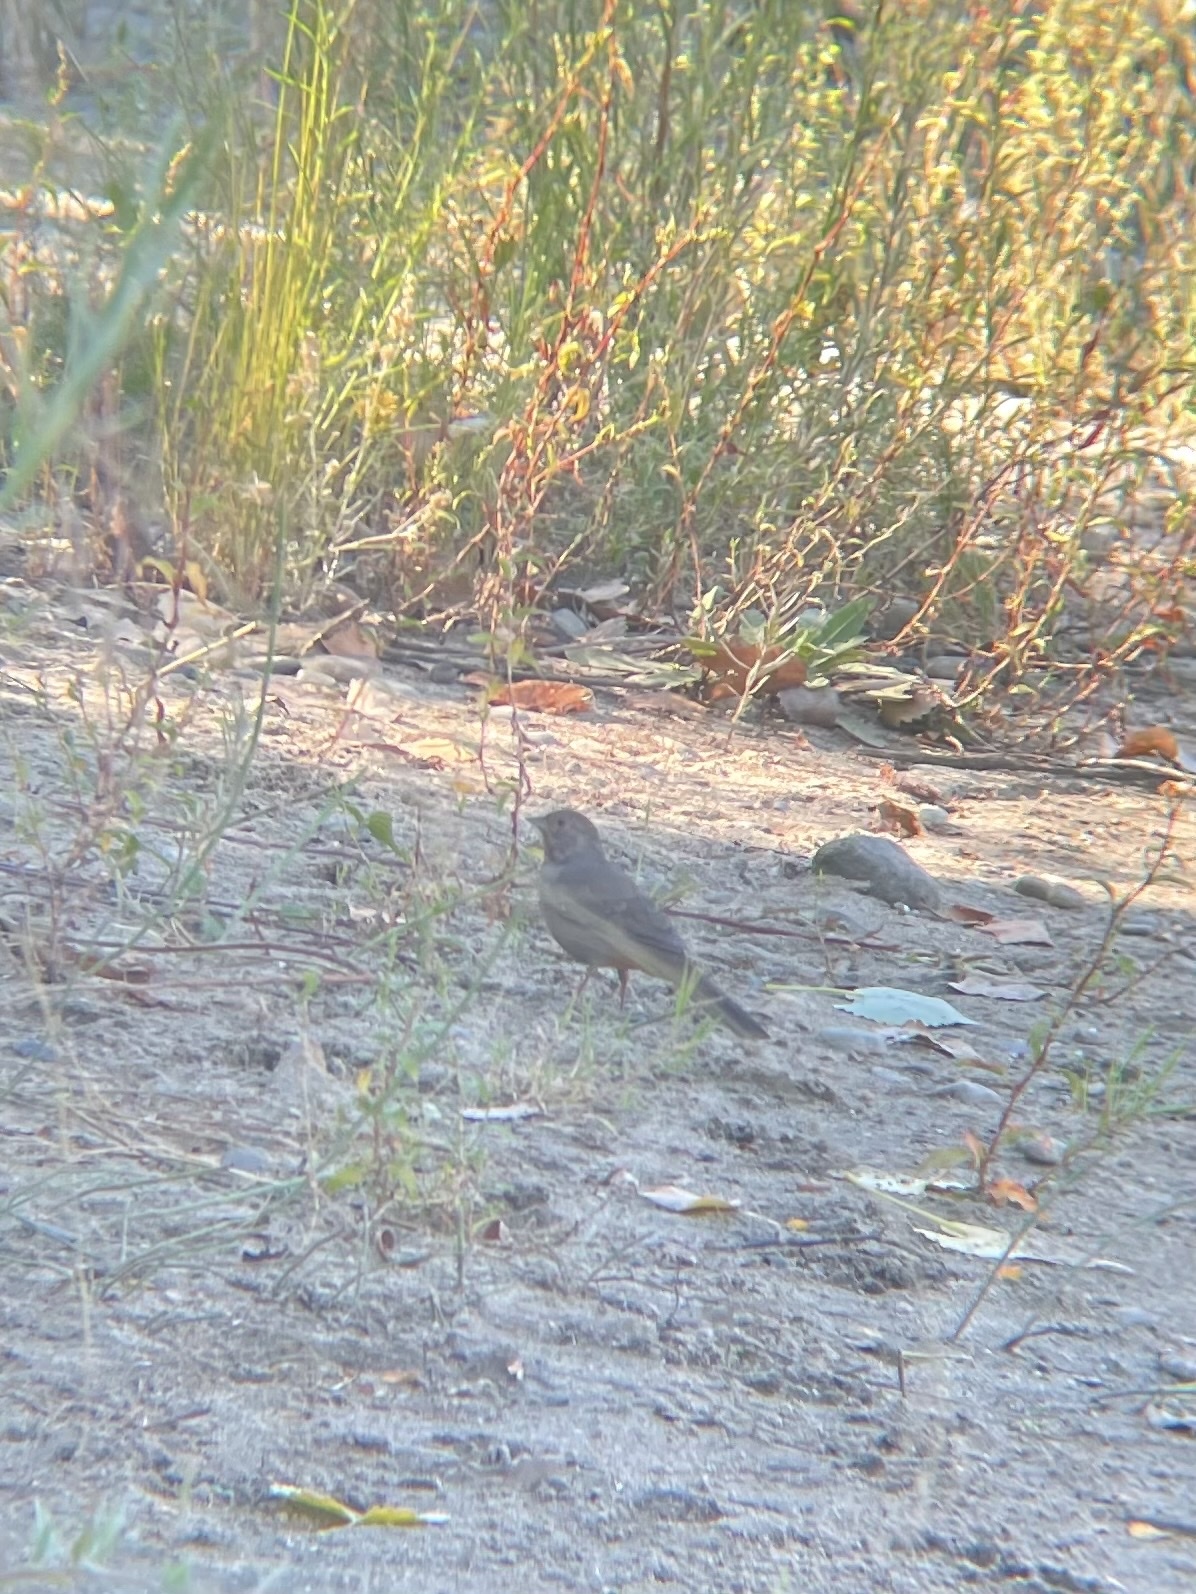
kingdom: Animalia
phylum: Chordata
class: Aves
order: Passeriformes
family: Passerellidae
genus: Melozone
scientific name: Melozone crissalis
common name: California towhee
